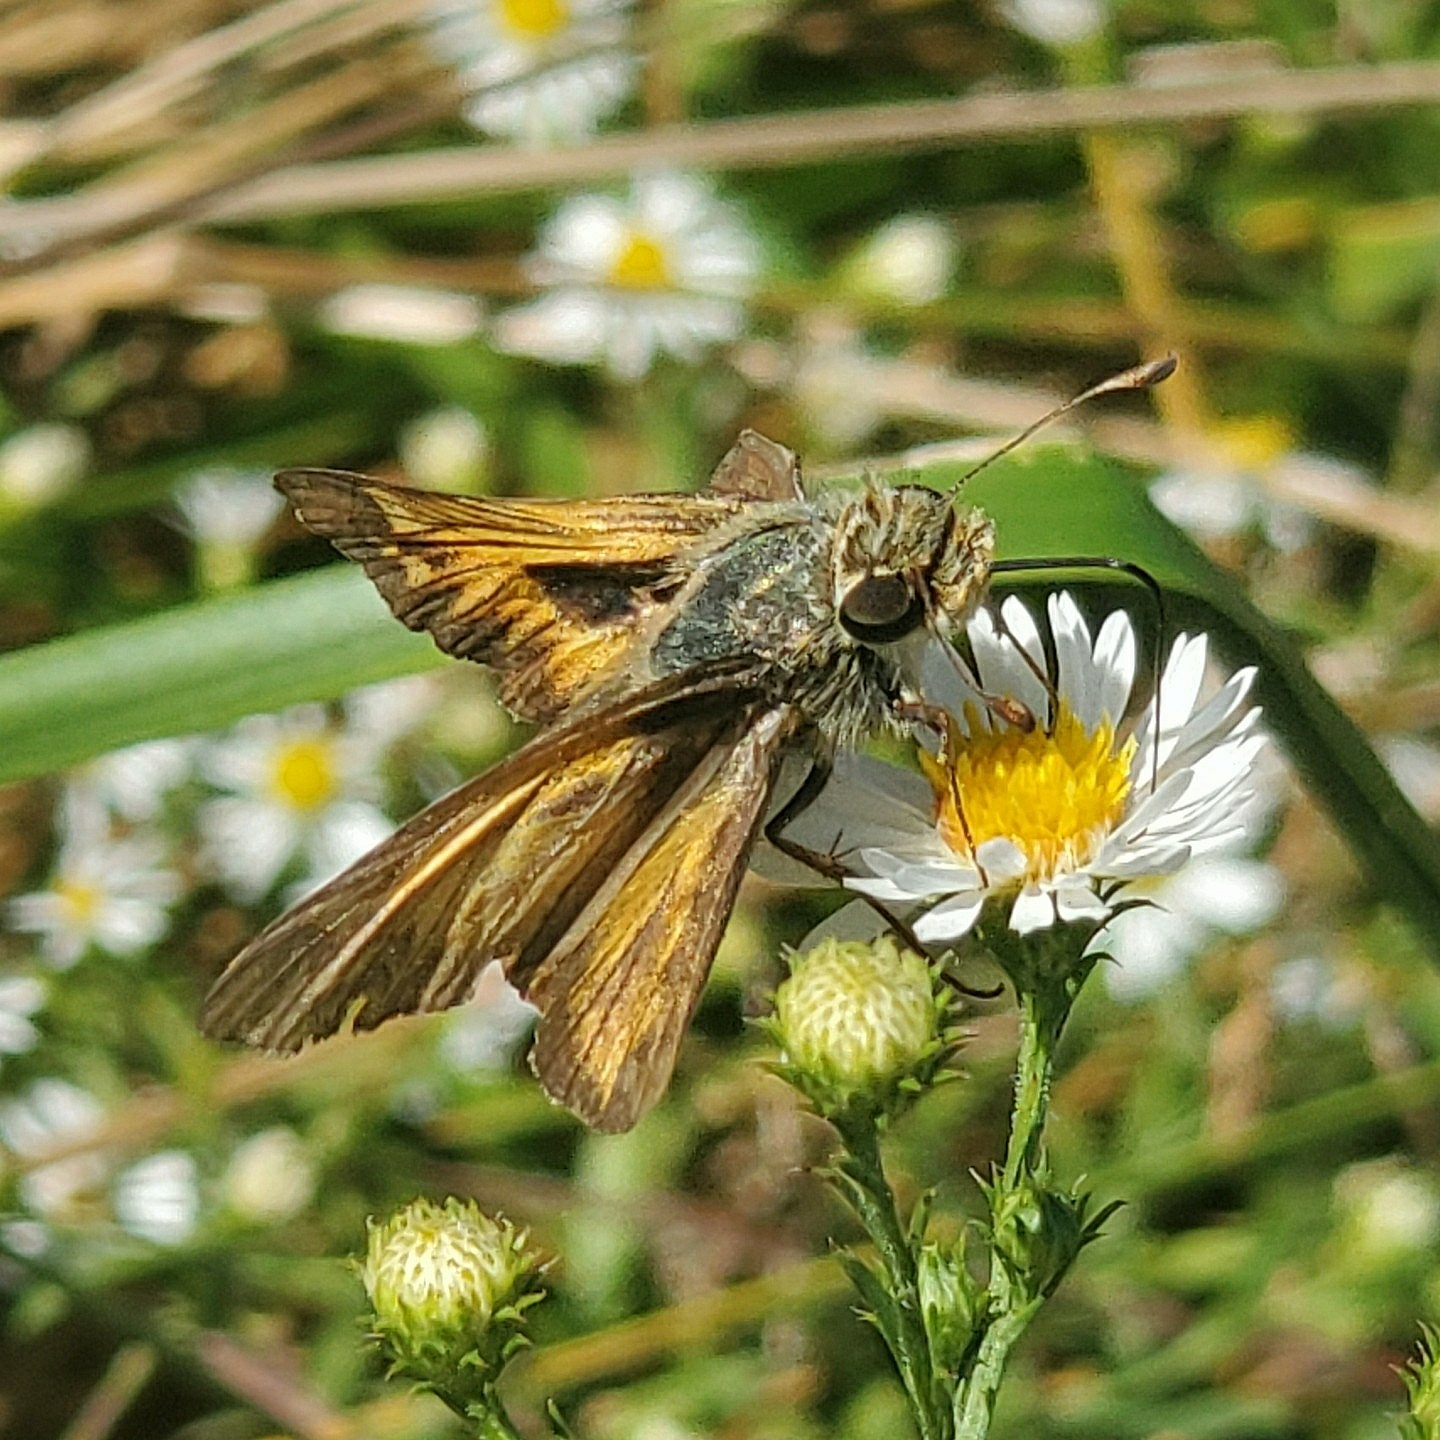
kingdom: Animalia
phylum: Arthropoda
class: Insecta
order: Lepidoptera
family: Hesperiidae
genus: Atalopedes
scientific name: Atalopedes
